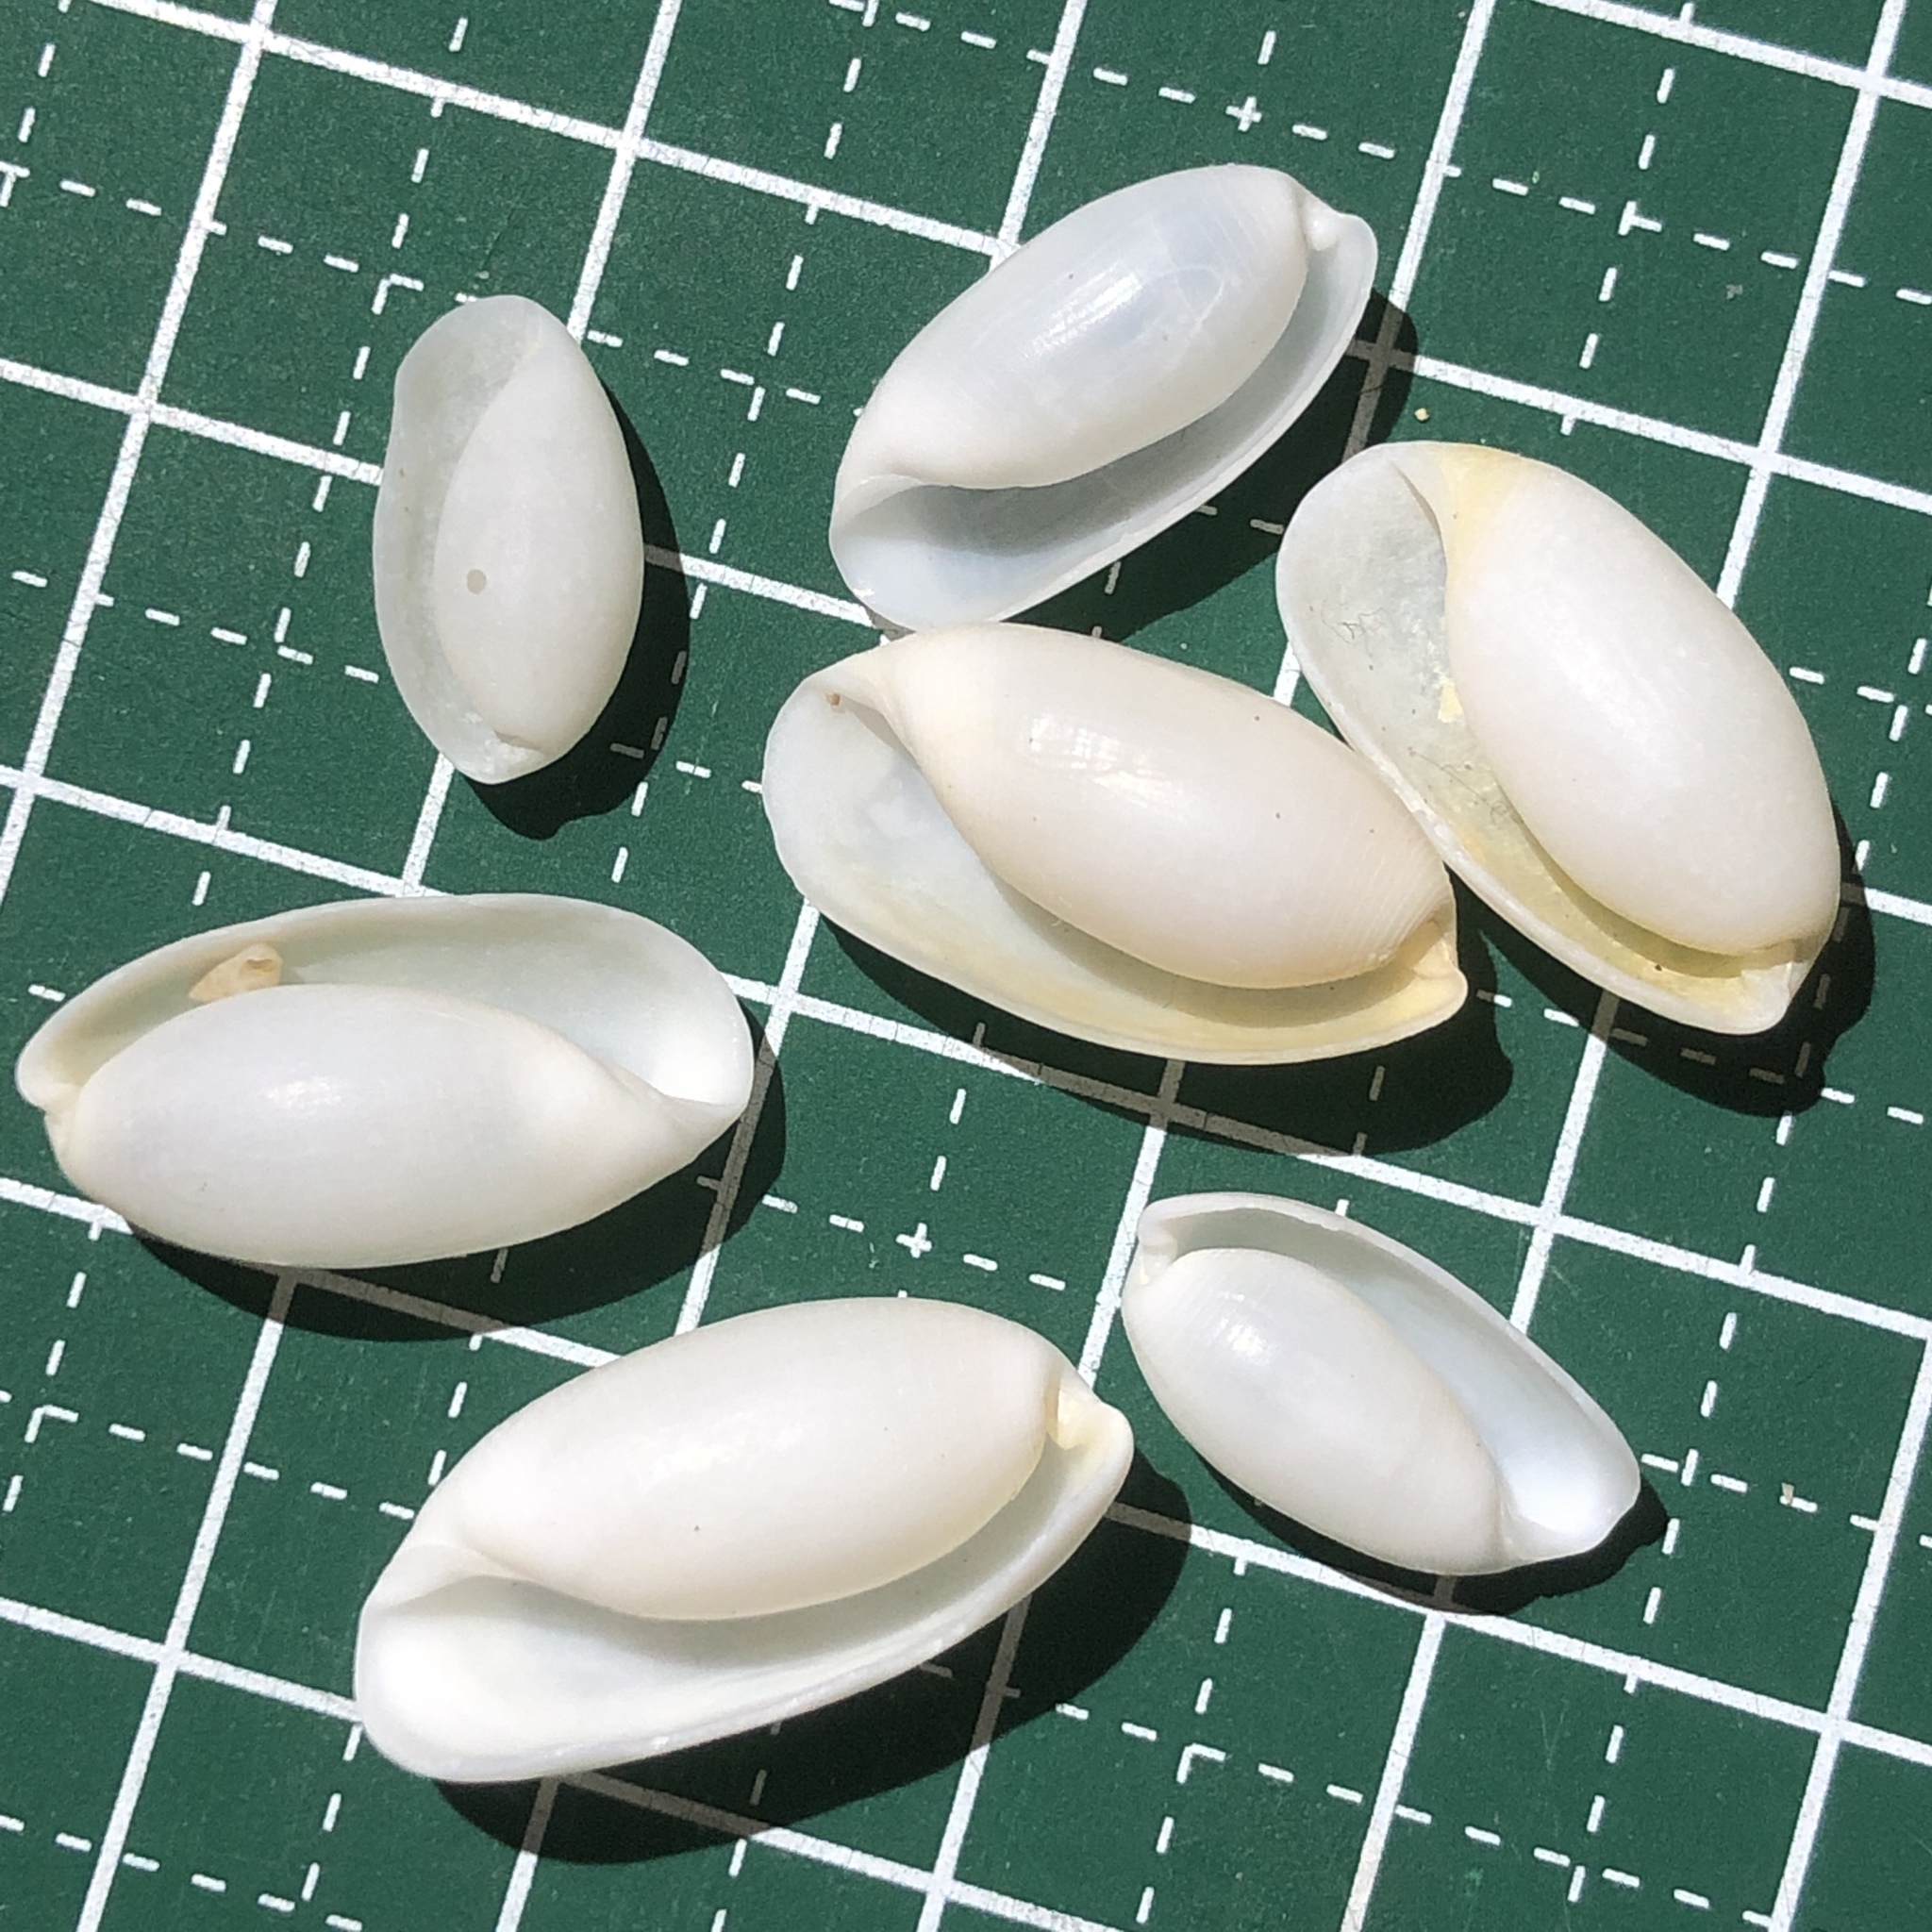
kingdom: Animalia
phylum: Mollusca
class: Gastropoda
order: Cephalaspidea
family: Haminoeidae
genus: Aliculastrum
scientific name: Aliculastrum cylindricum
